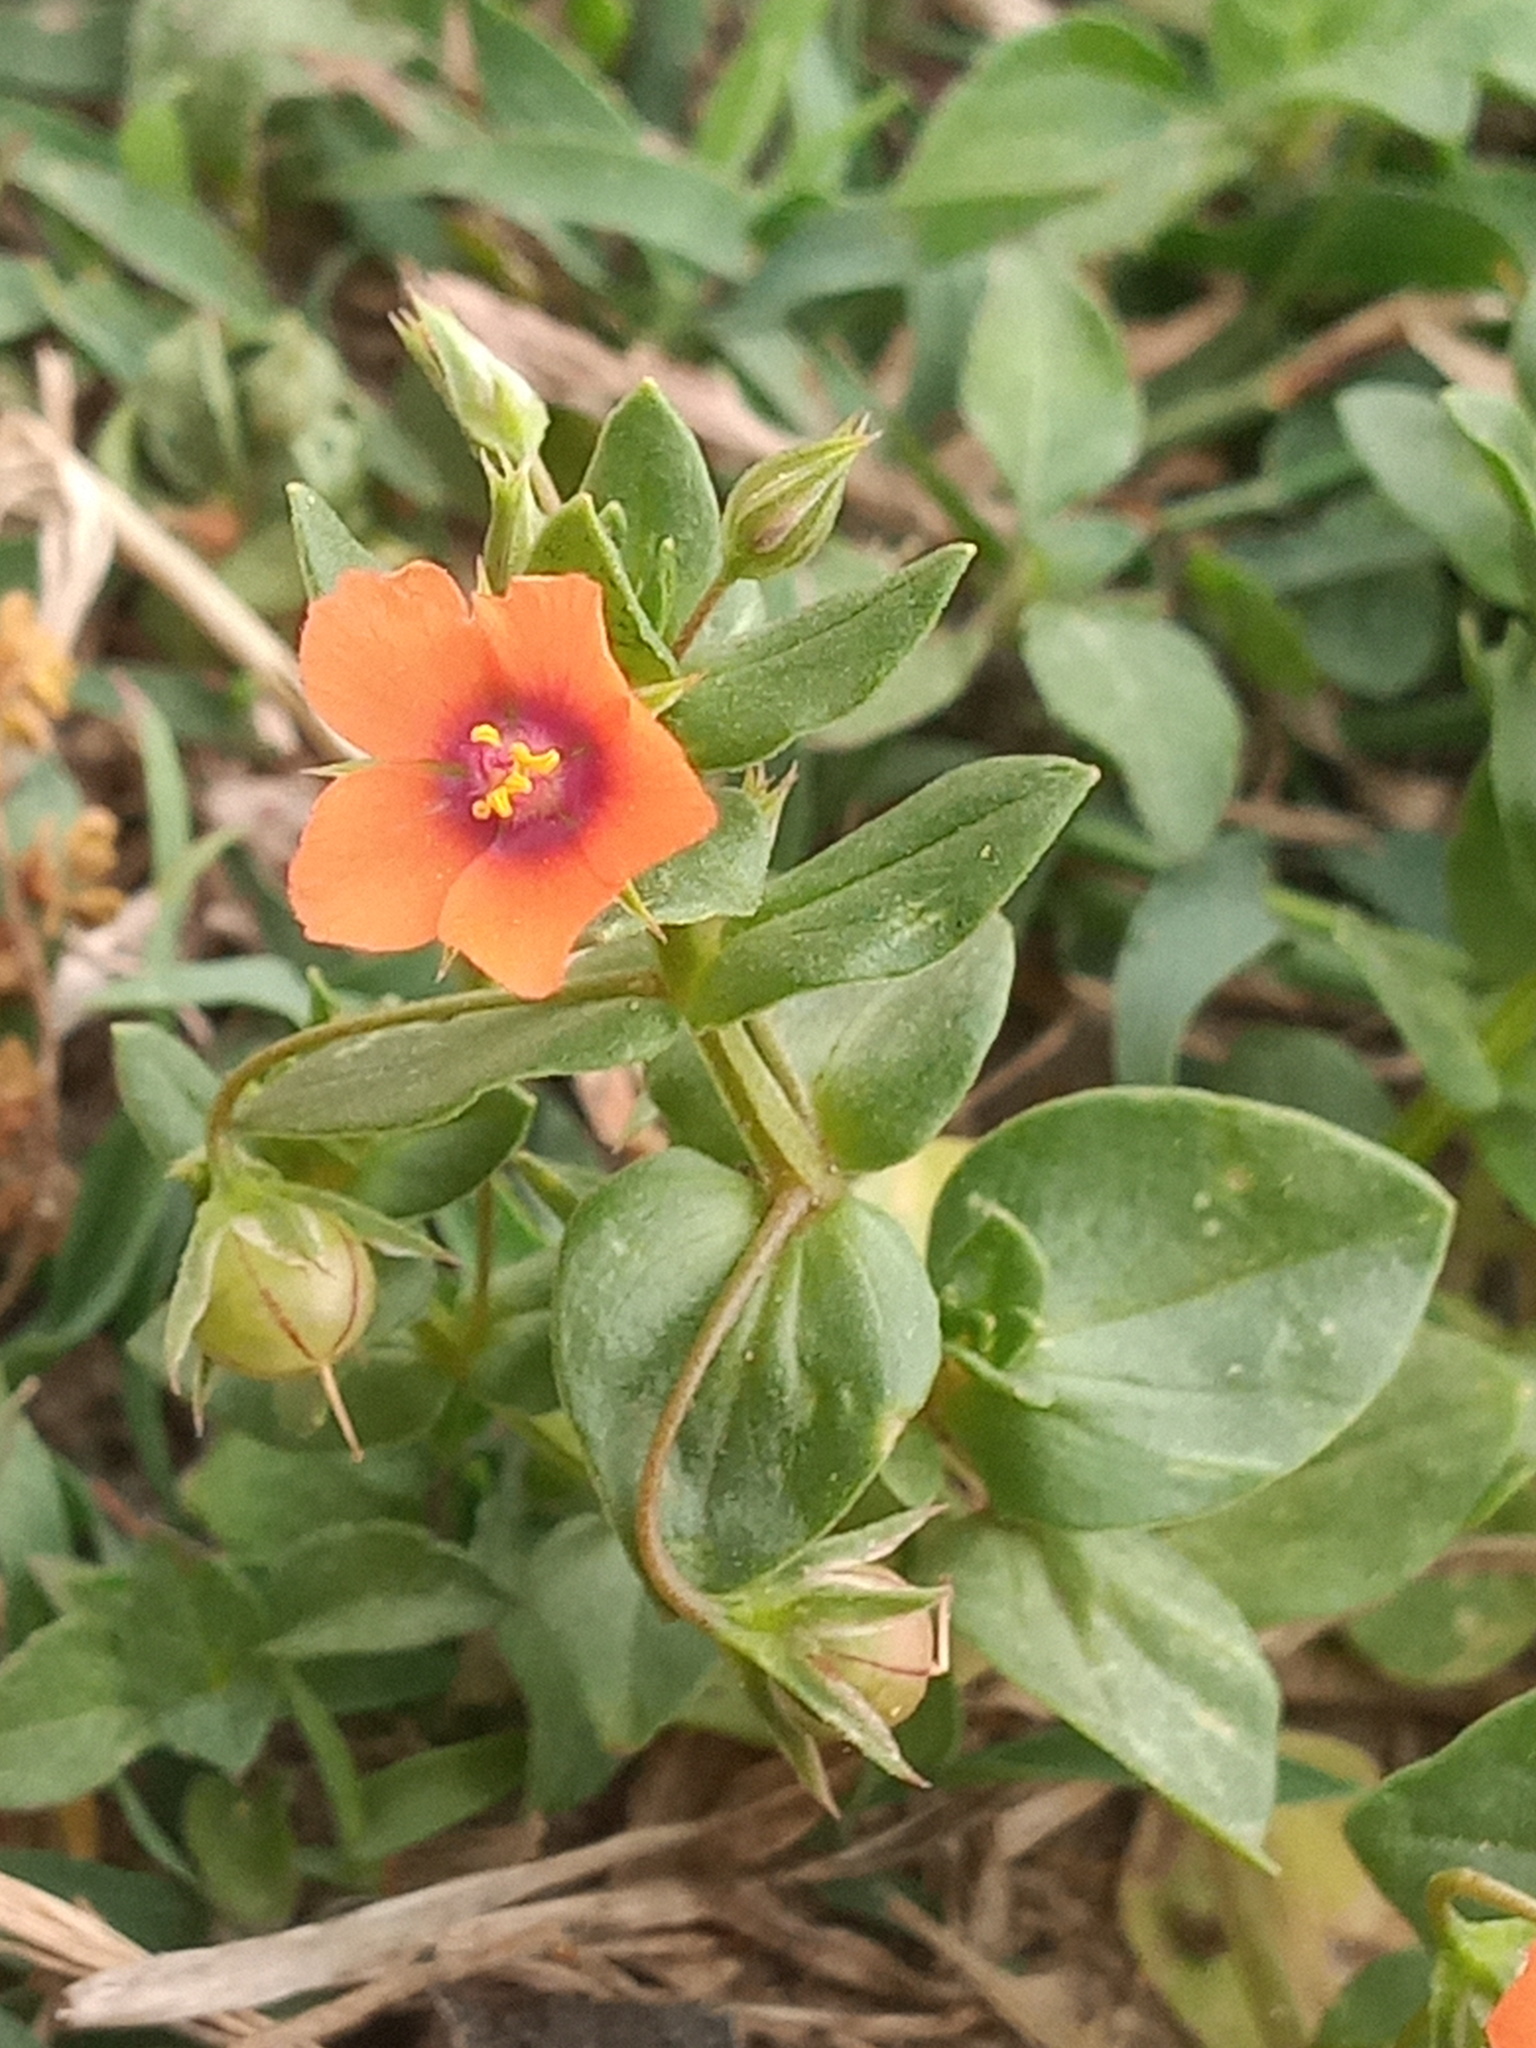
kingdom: Plantae
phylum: Tracheophyta
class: Magnoliopsida
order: Ericales
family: Primulaceae
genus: Lysimachia
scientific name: Lysimachia arvensis
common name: Scarlet pimpernel
